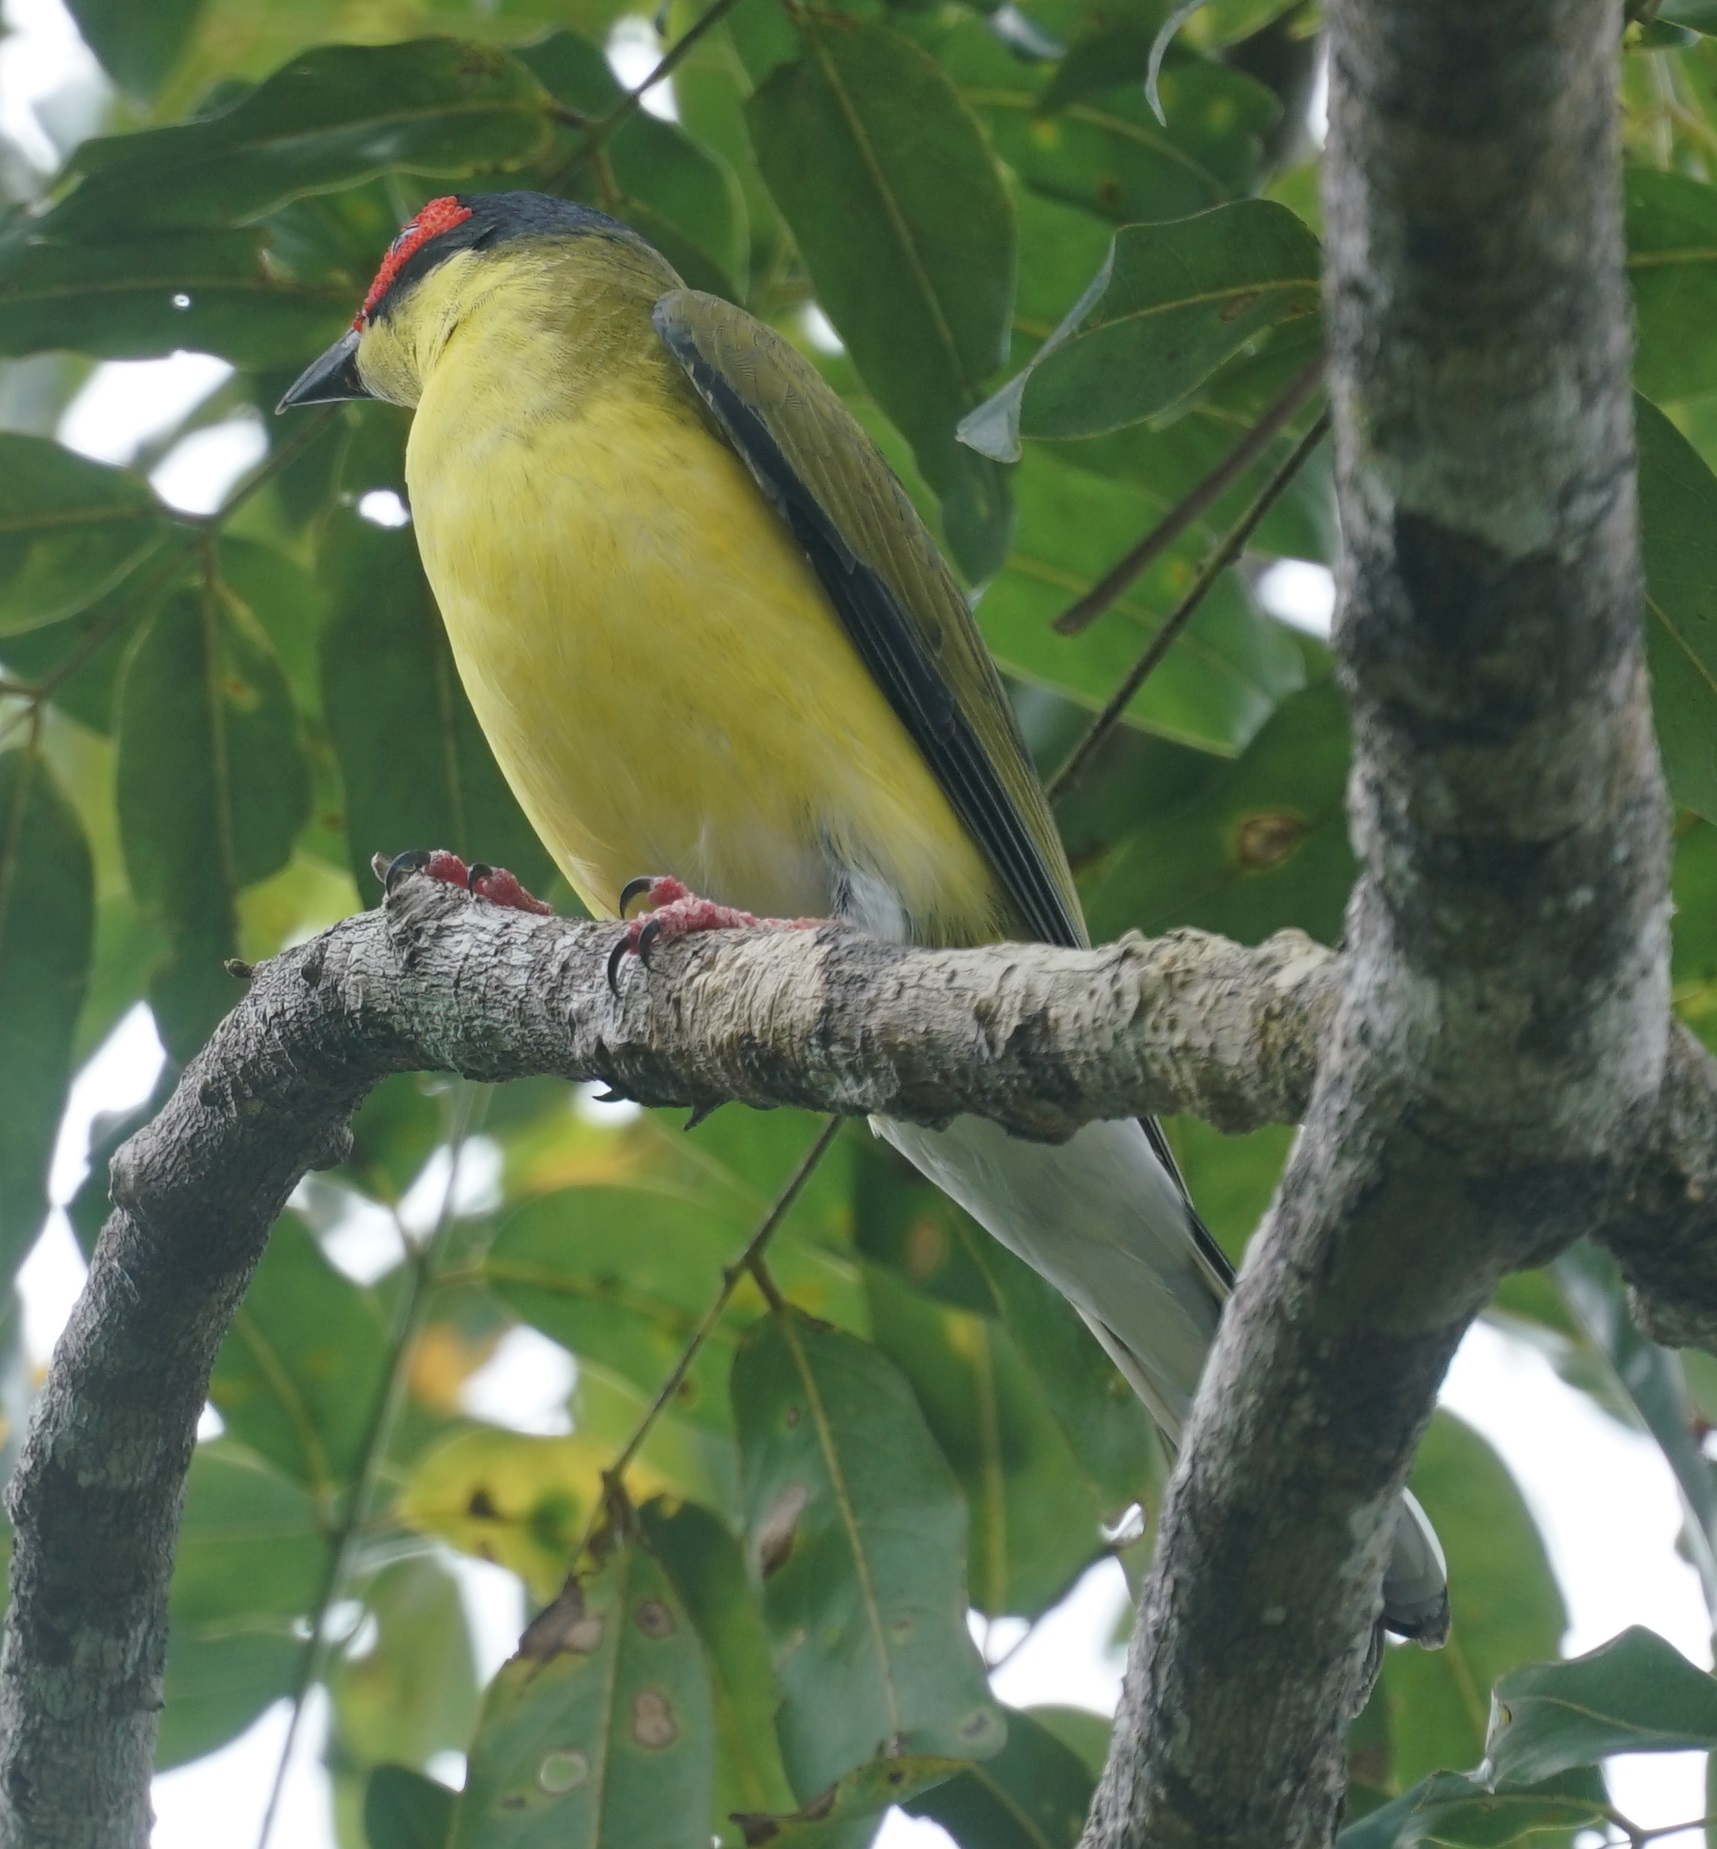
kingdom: Animalia
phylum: Chordata
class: Aves
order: Passeriformes
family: Oriolidae
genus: Sphecotheres
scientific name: Sphecotheres vieilloti
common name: Australasian figbird
